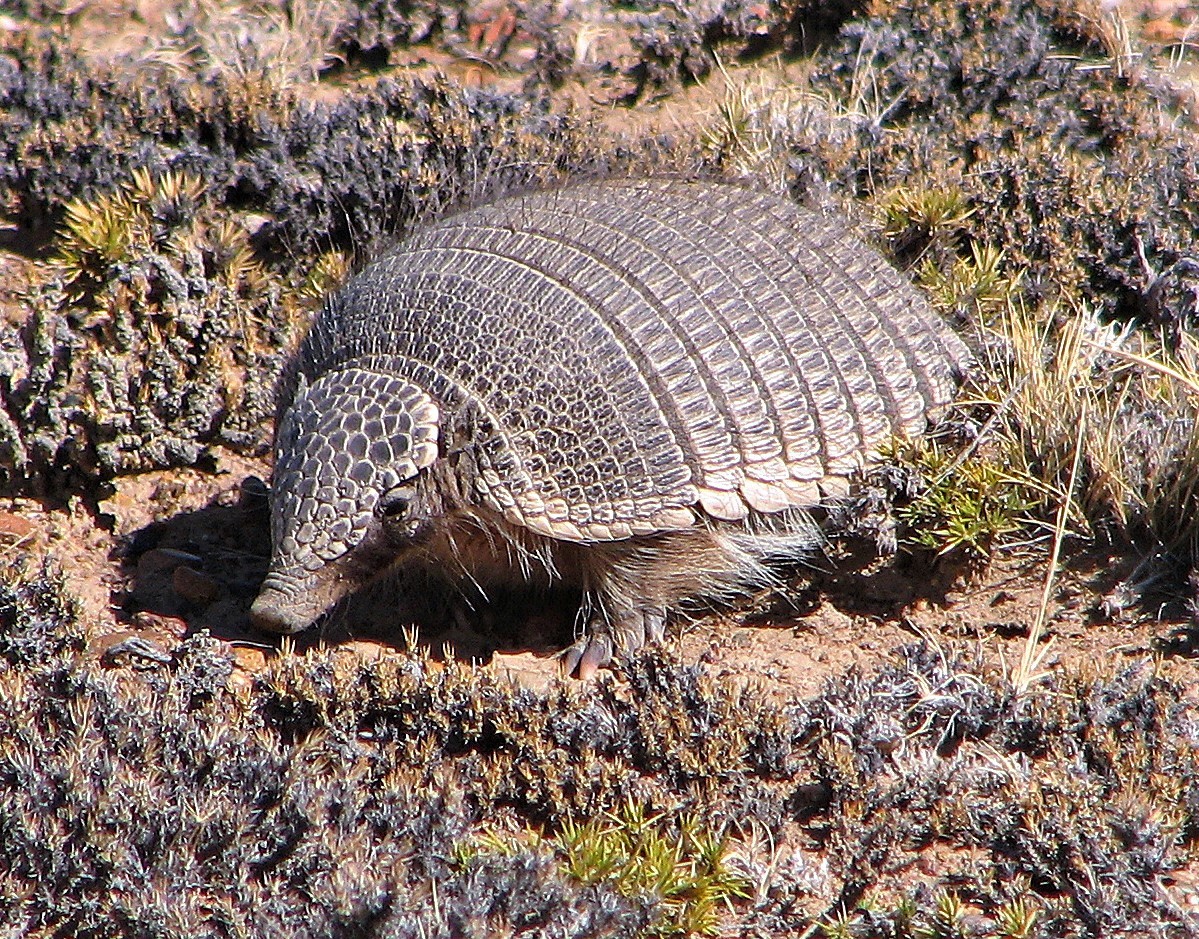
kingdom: Animalia
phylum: Chordata
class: Mammalia
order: Cingulata
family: Dasypodidae
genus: Zaedyus
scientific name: Zaedyus pichiy
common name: Pichi
